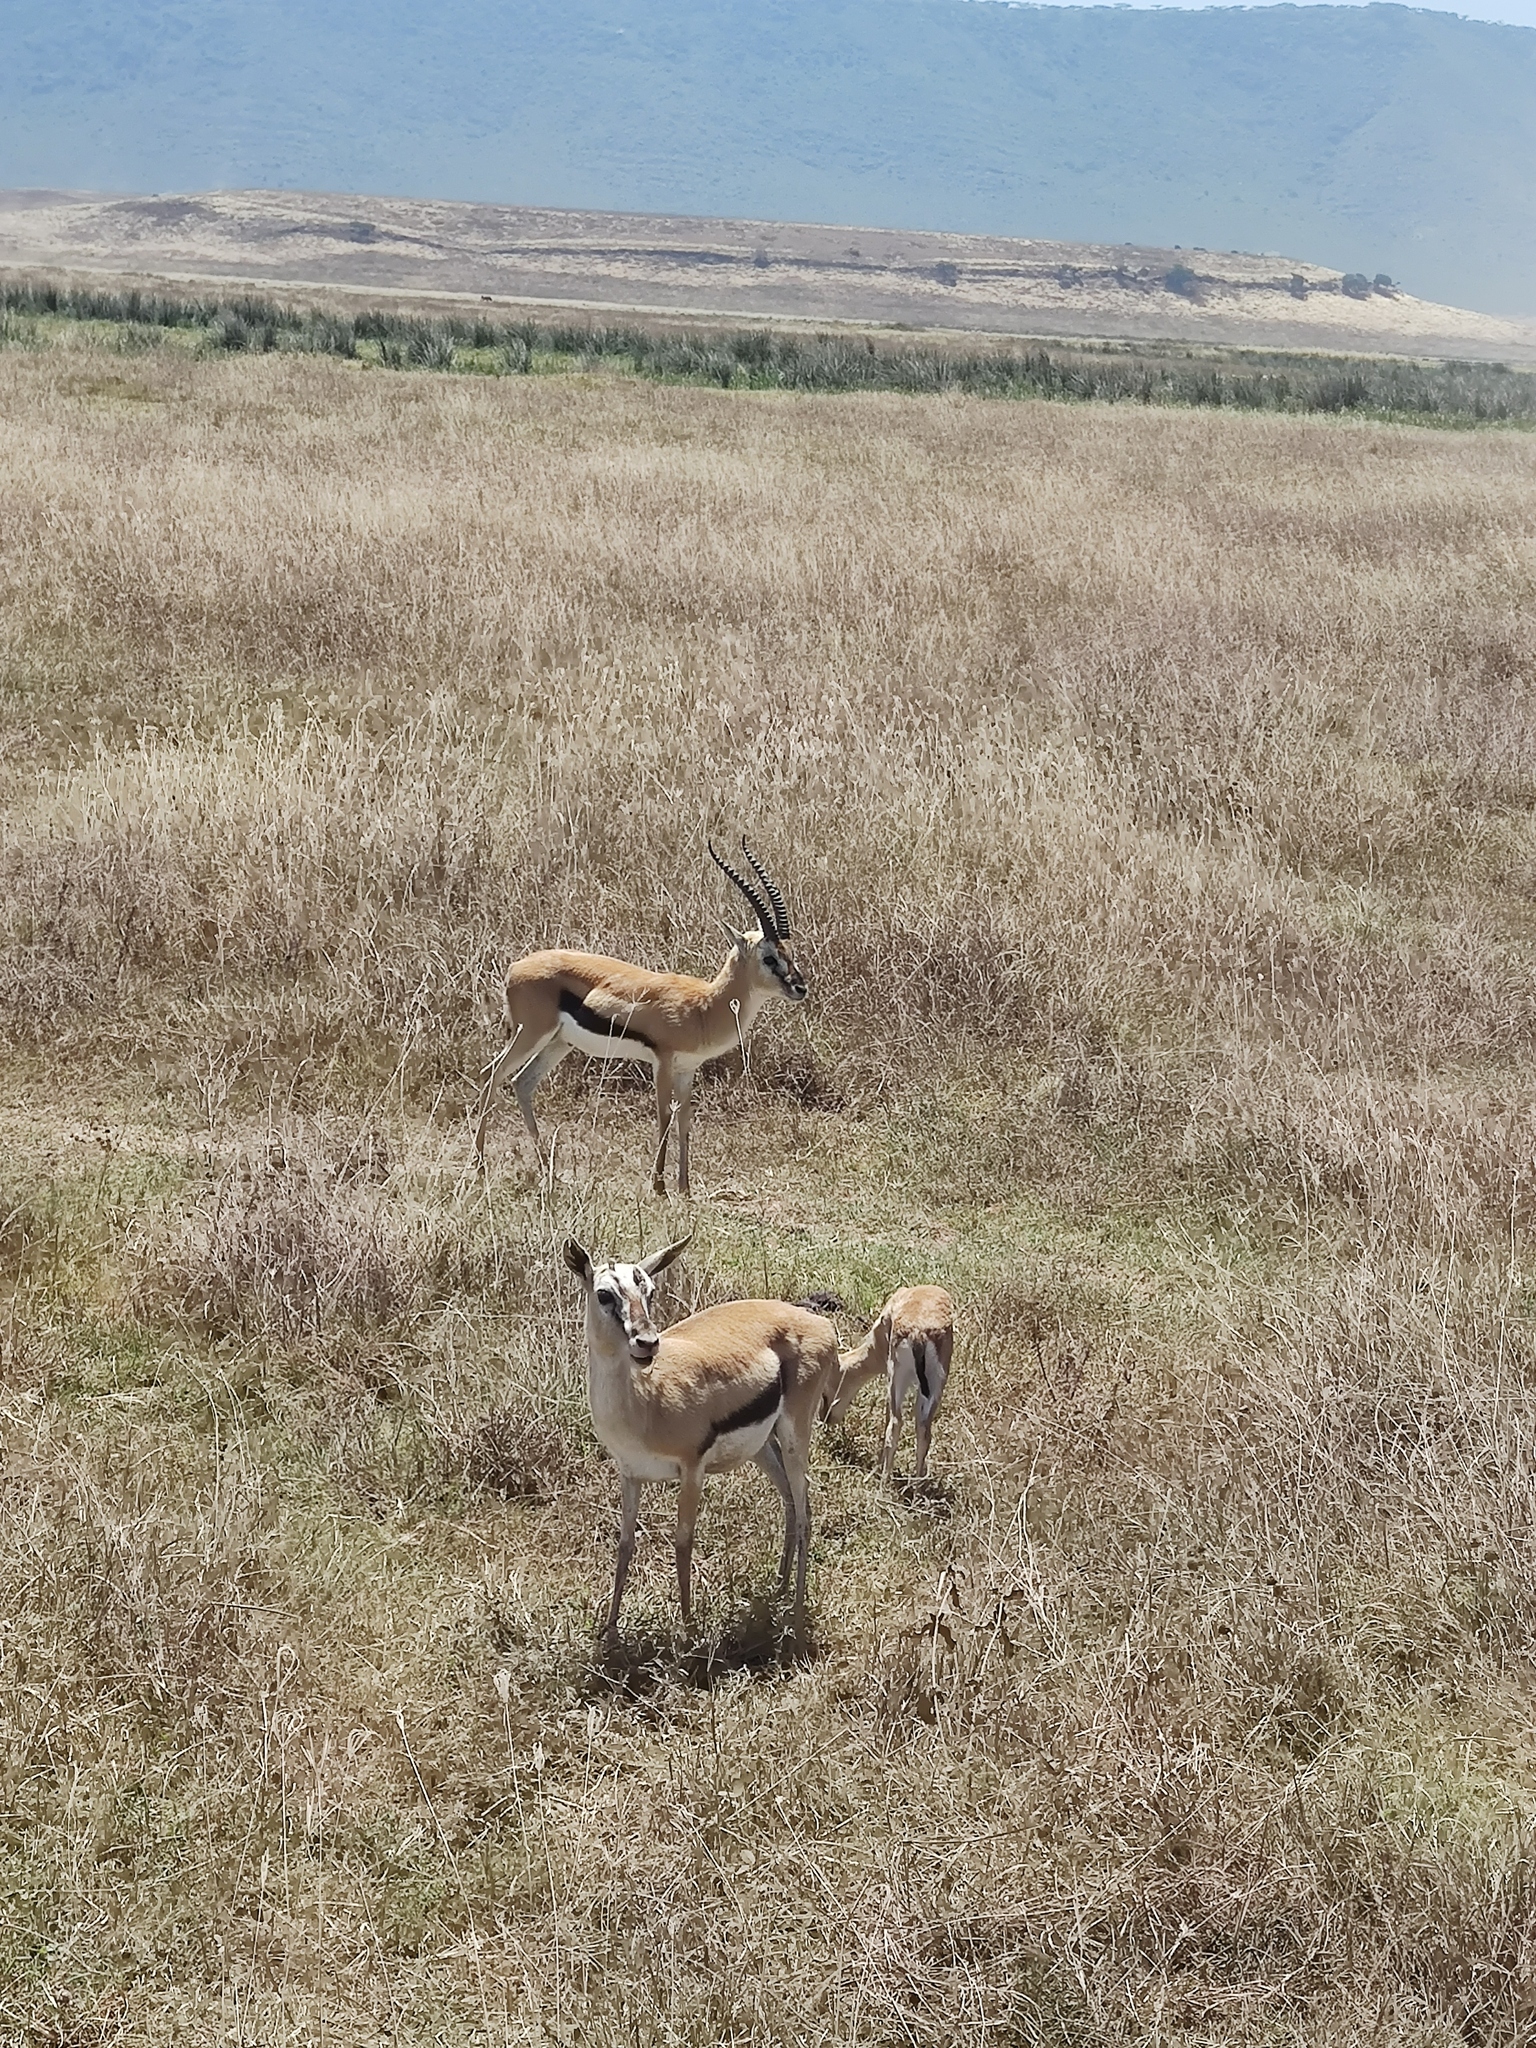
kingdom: Animalia
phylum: Chordata
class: Mammalia
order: Artiodactyla
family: Bovidae
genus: Eudorcas
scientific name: Eudorcas thomsonii
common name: Thomson's gazelle
